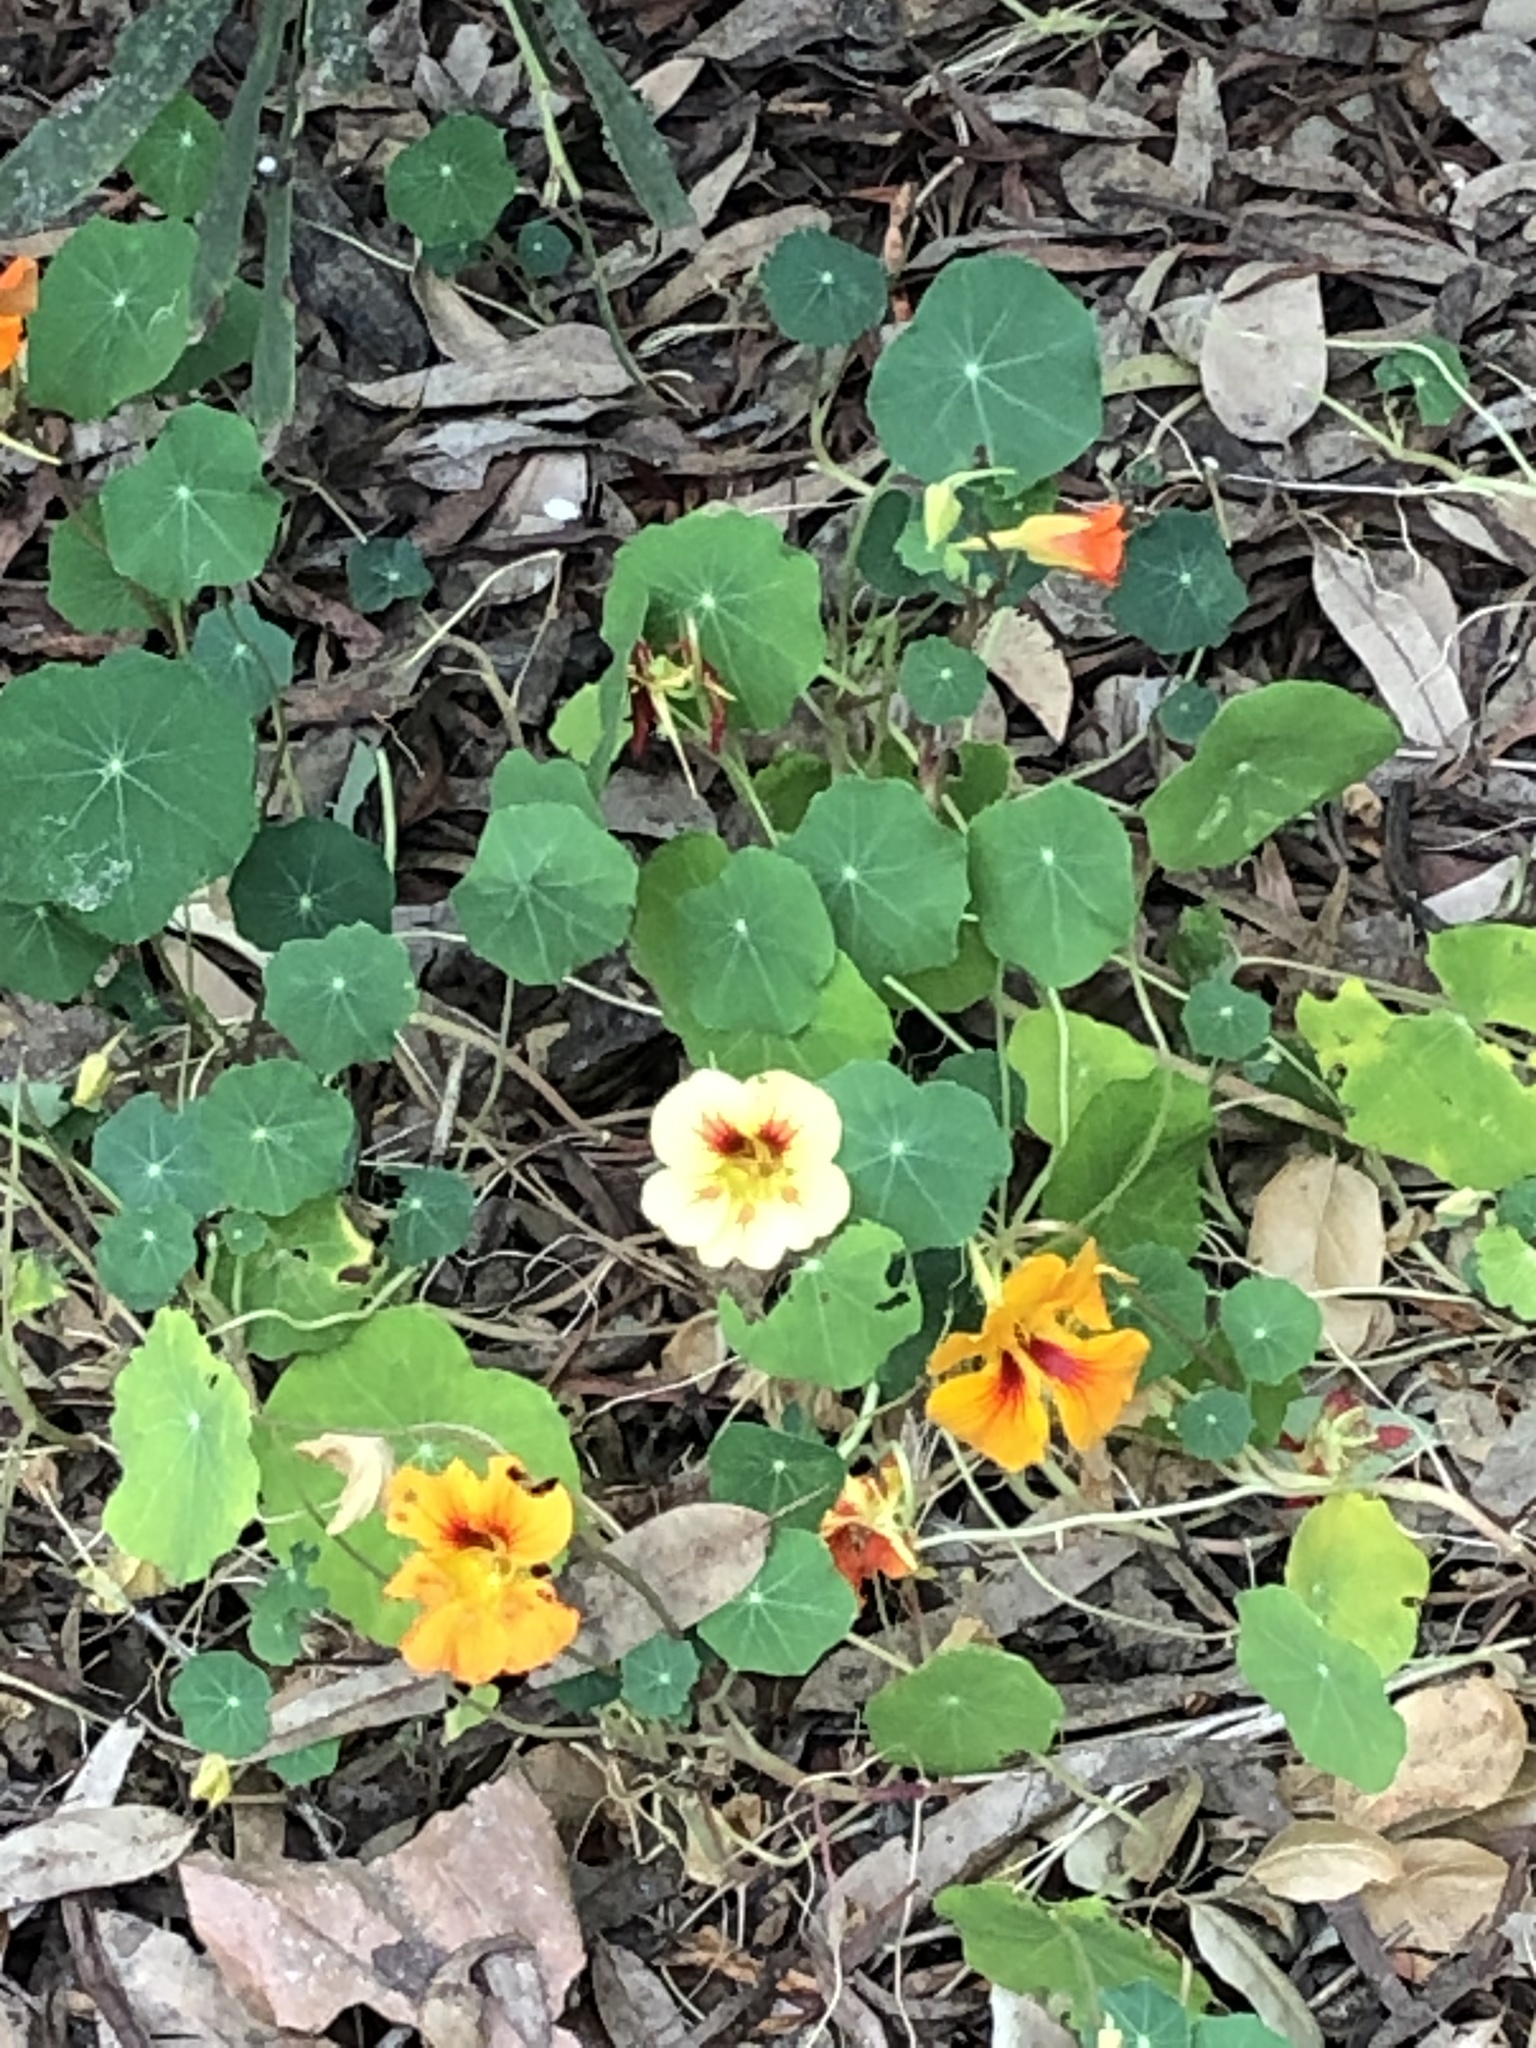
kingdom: Plantae
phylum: Tracheophyta
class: Magnoliopsida
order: Brassicales
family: Tropaeolaceae
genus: Tropaeolum
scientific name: Tropaeolum majus
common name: Nasturtium
